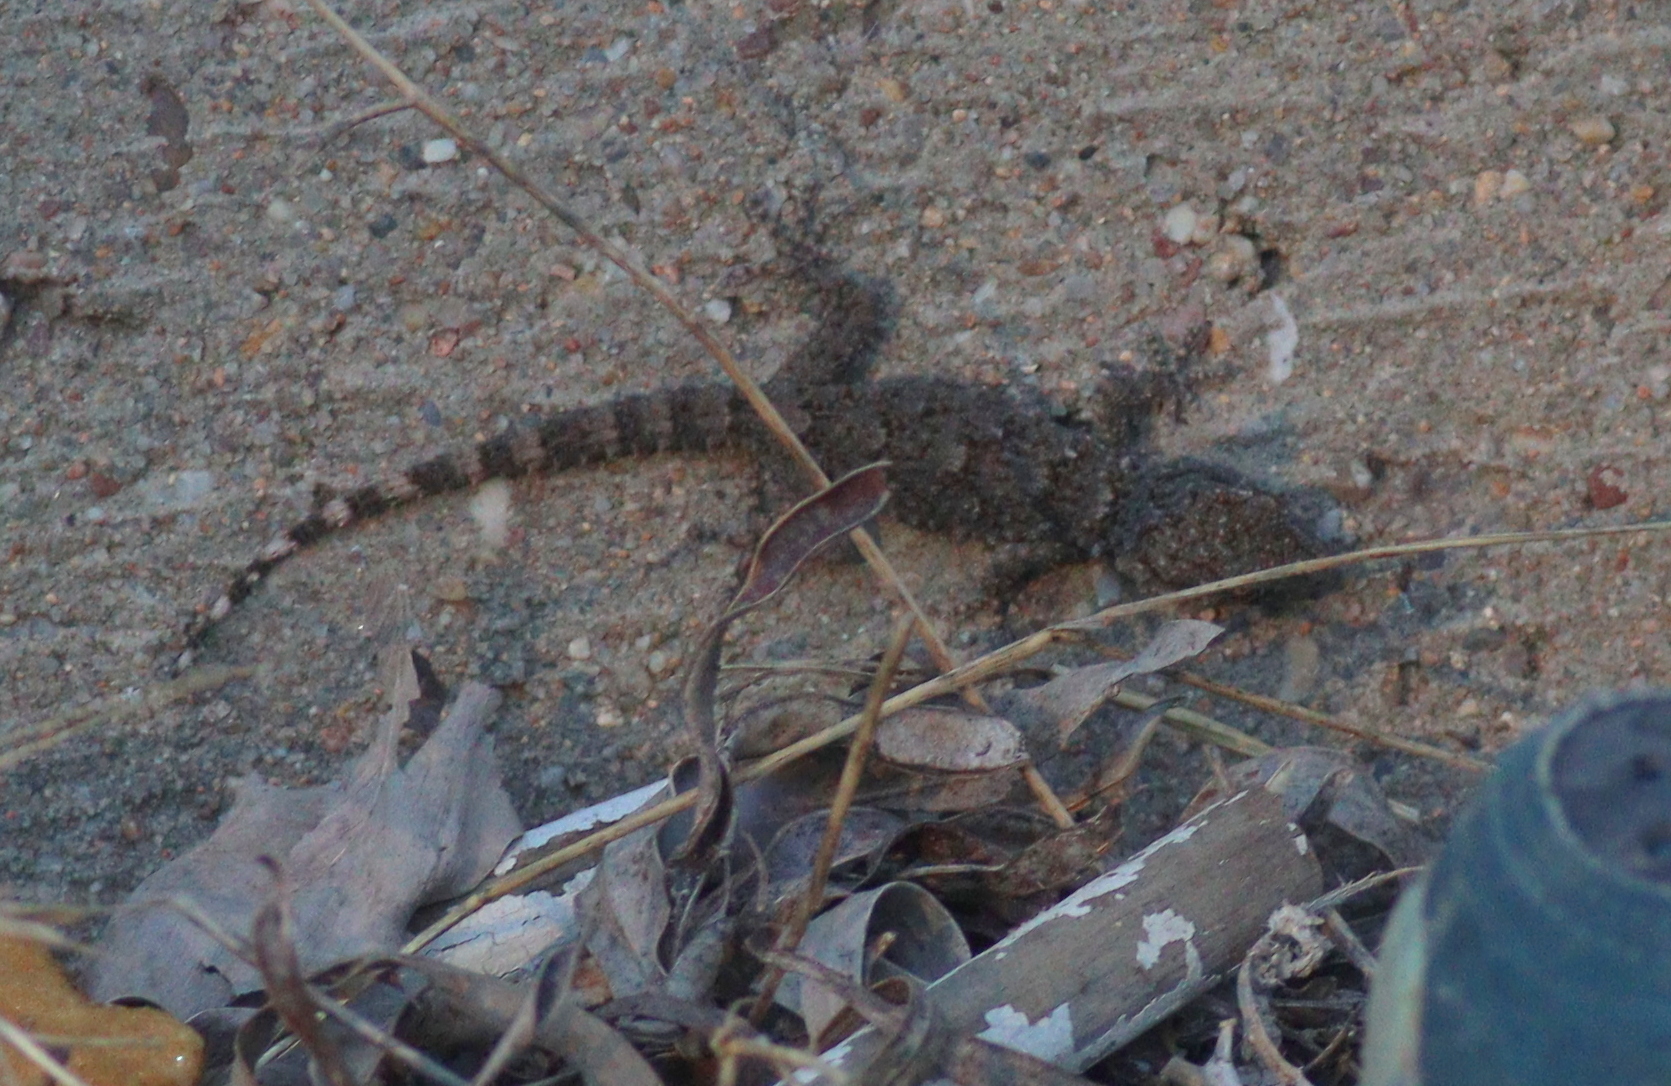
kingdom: Animalia
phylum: Chordata
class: Squamata
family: Phyllodactylidae
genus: Tarentola
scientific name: Tarentola mauritanica
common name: Moorish gecko
